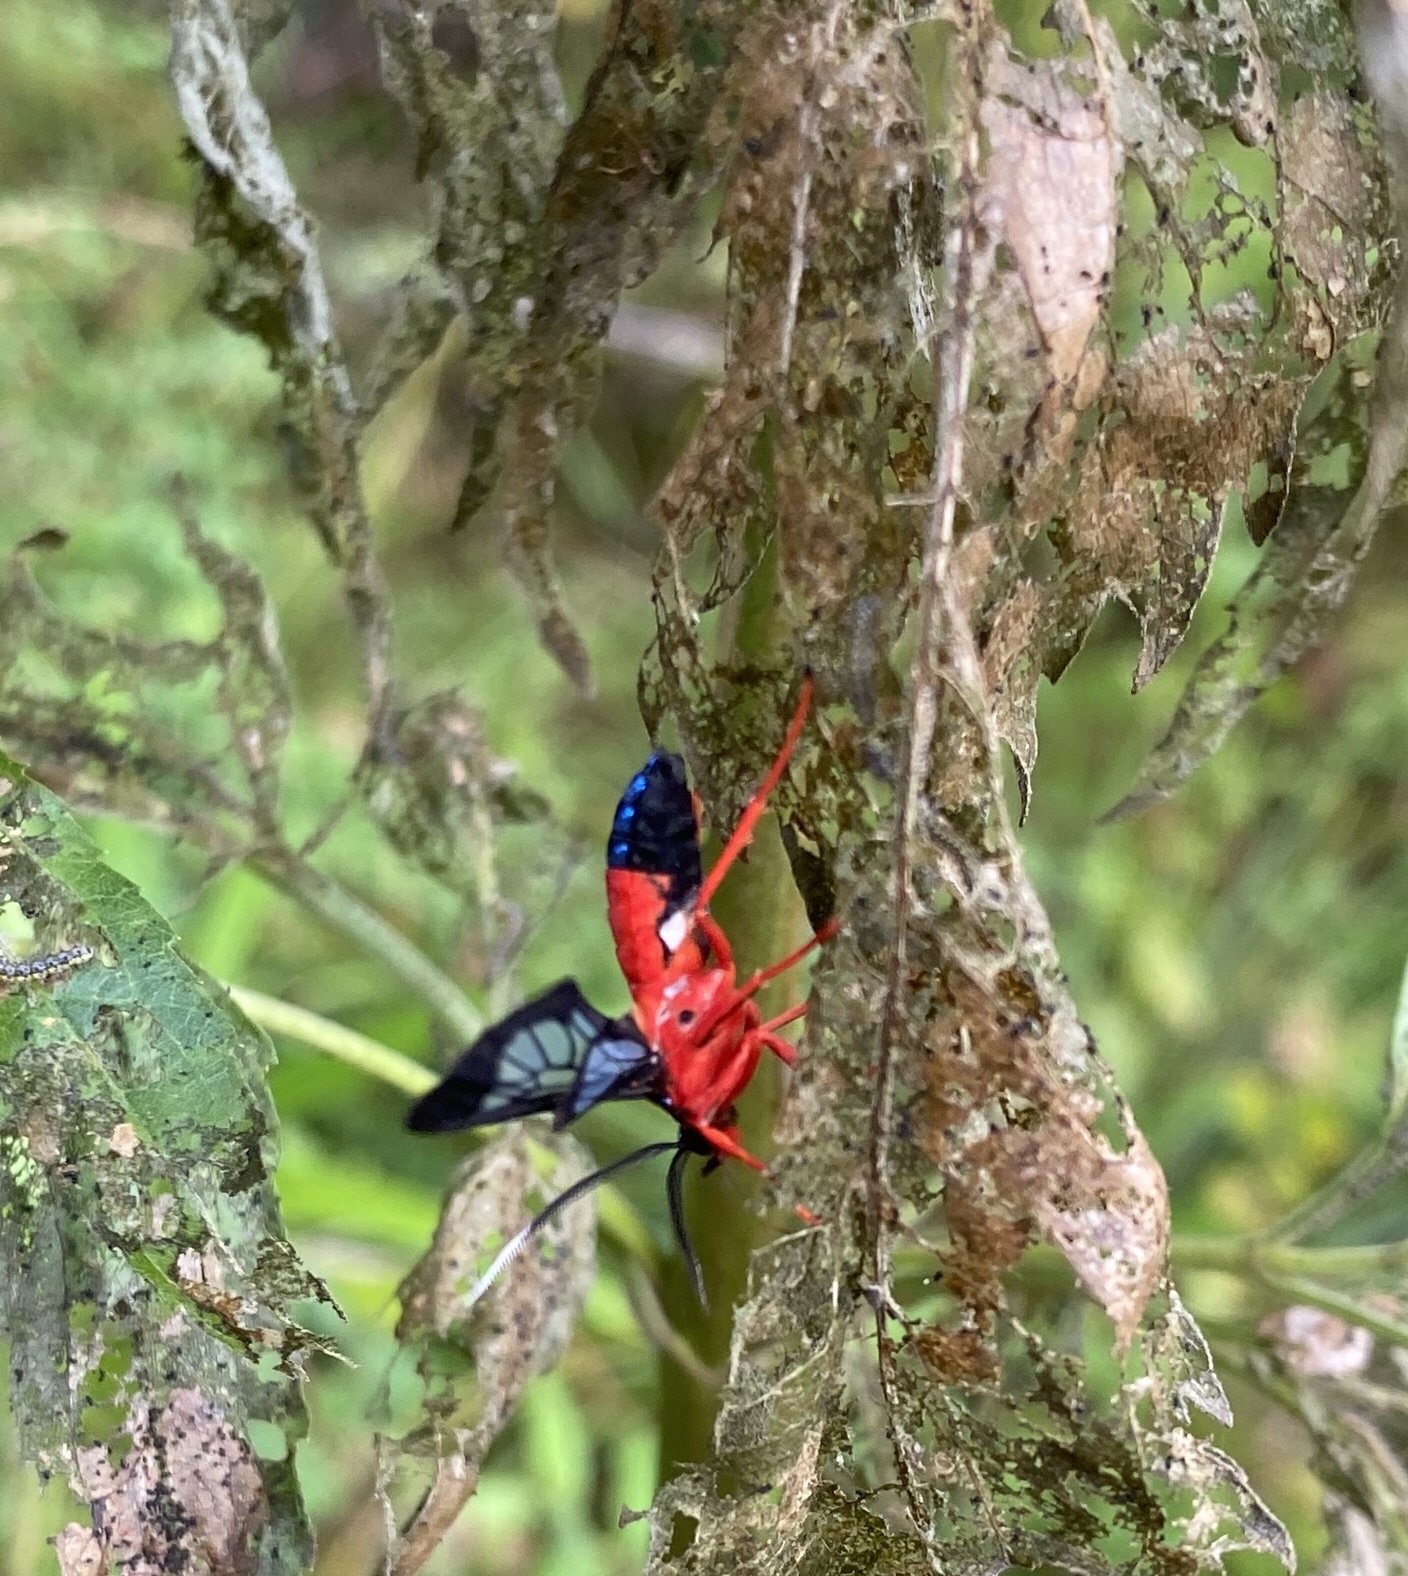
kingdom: Animalia
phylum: Arthropoda
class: Insecta
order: Lepidoptera
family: Erebidae
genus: Cosmosoma
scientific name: Cosmosoma myrodora
